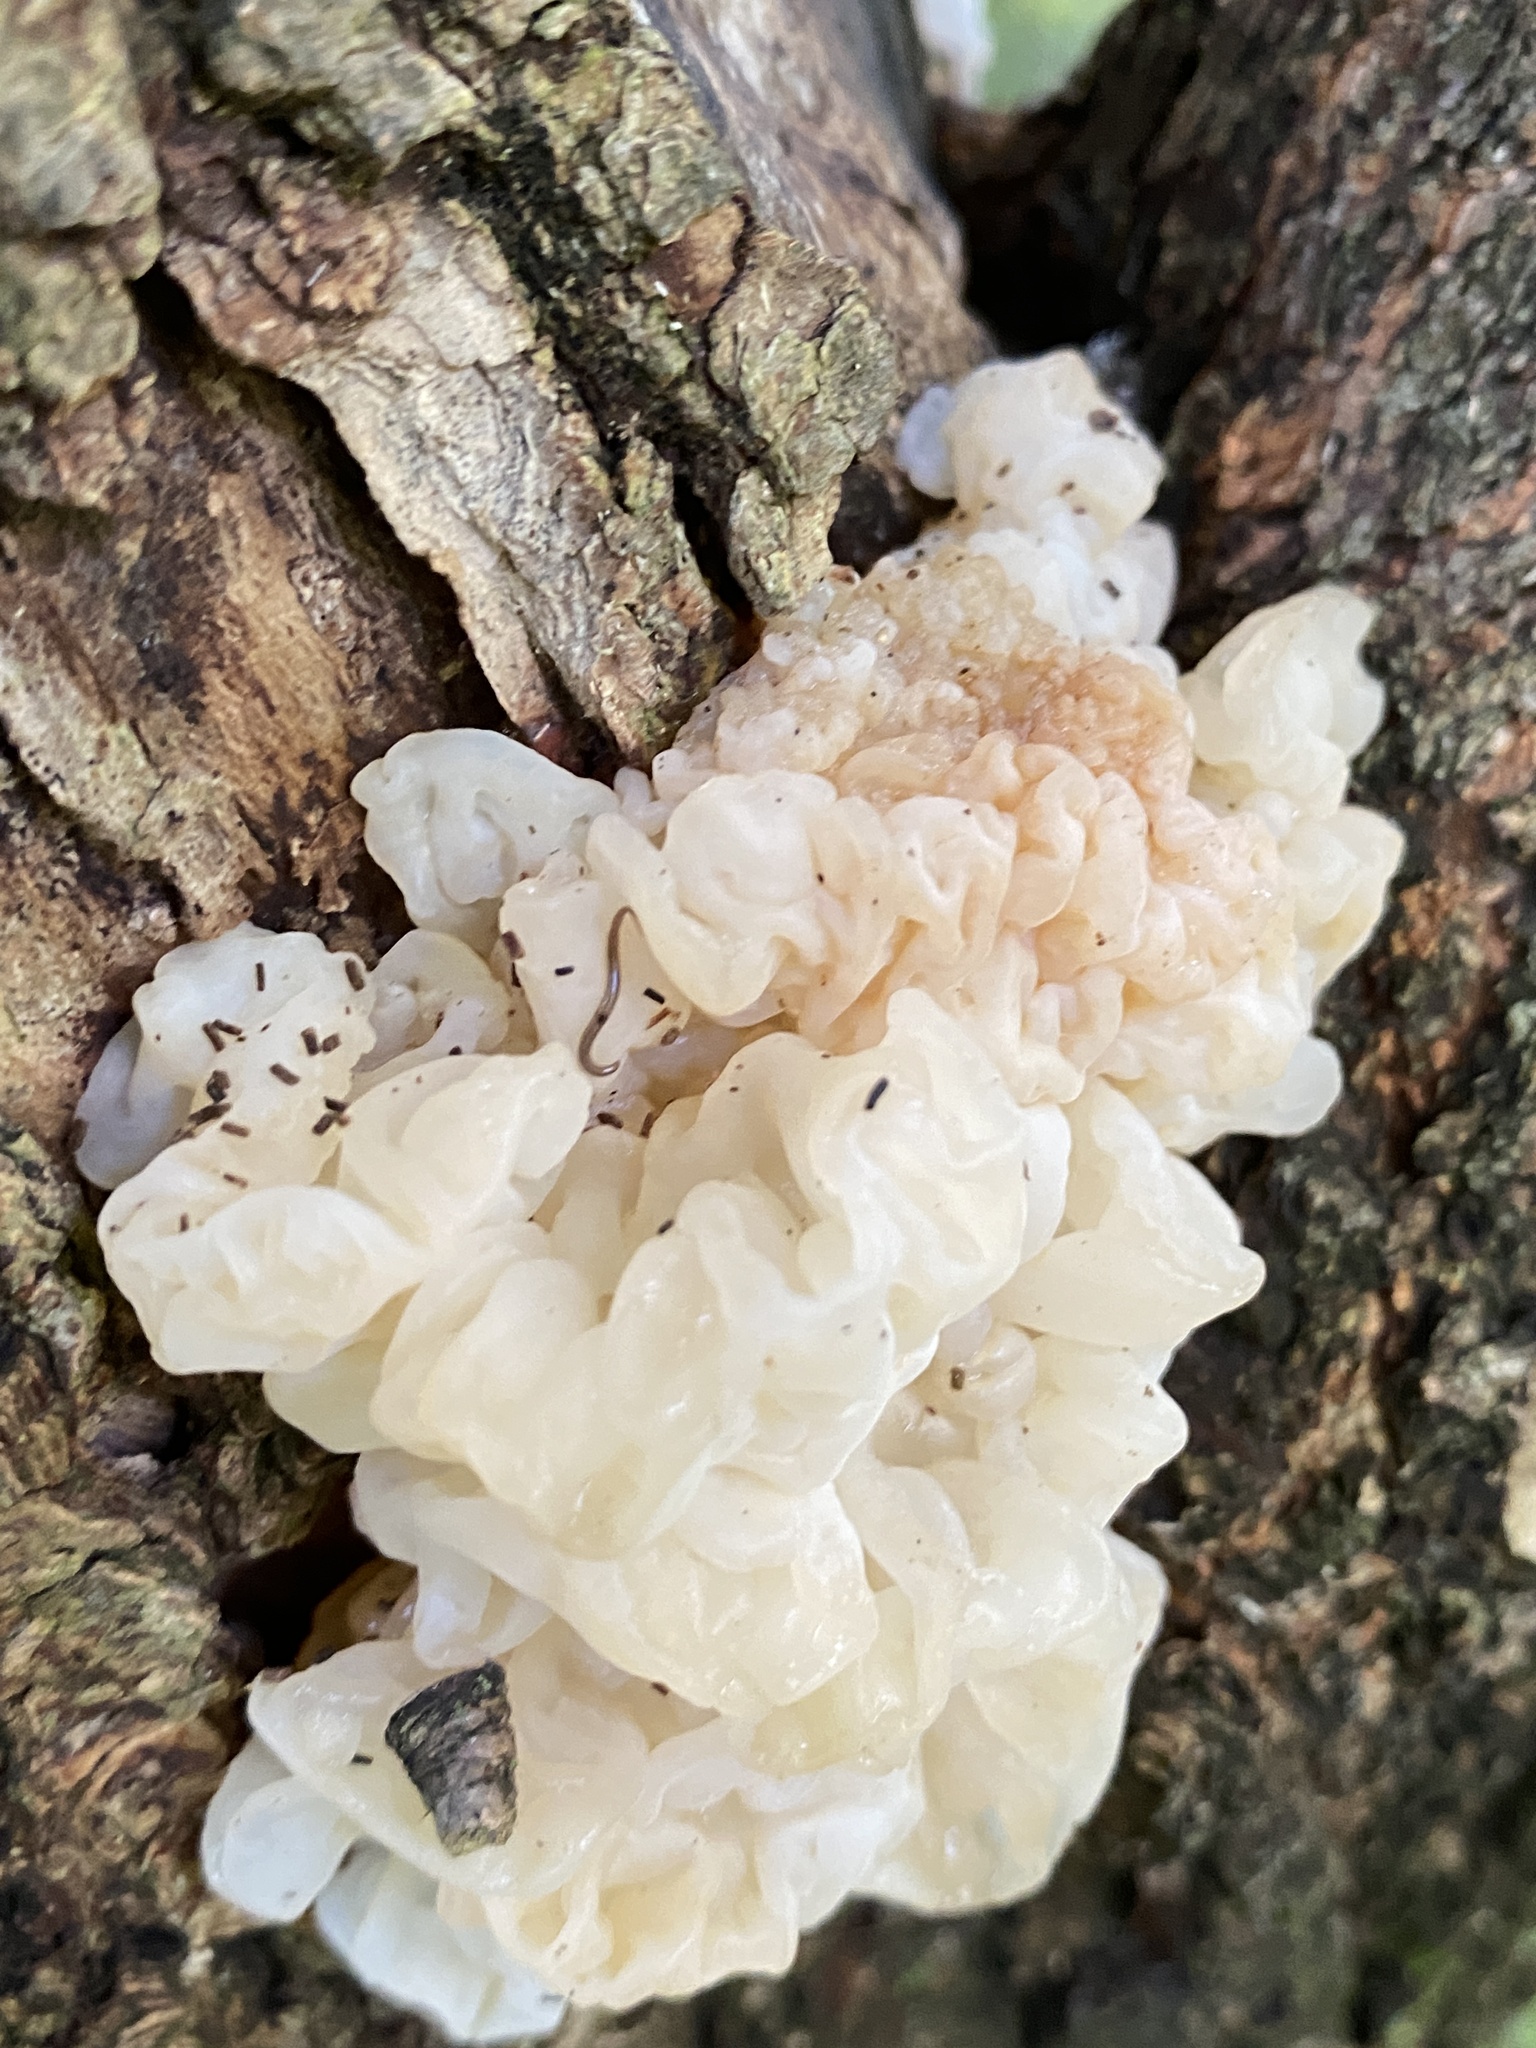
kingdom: Fungi
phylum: Basidiomycota
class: Agaricomycetes
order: Auriculariales
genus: Ductifera
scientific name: Ductifera pululahuana
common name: White jelly fungus
